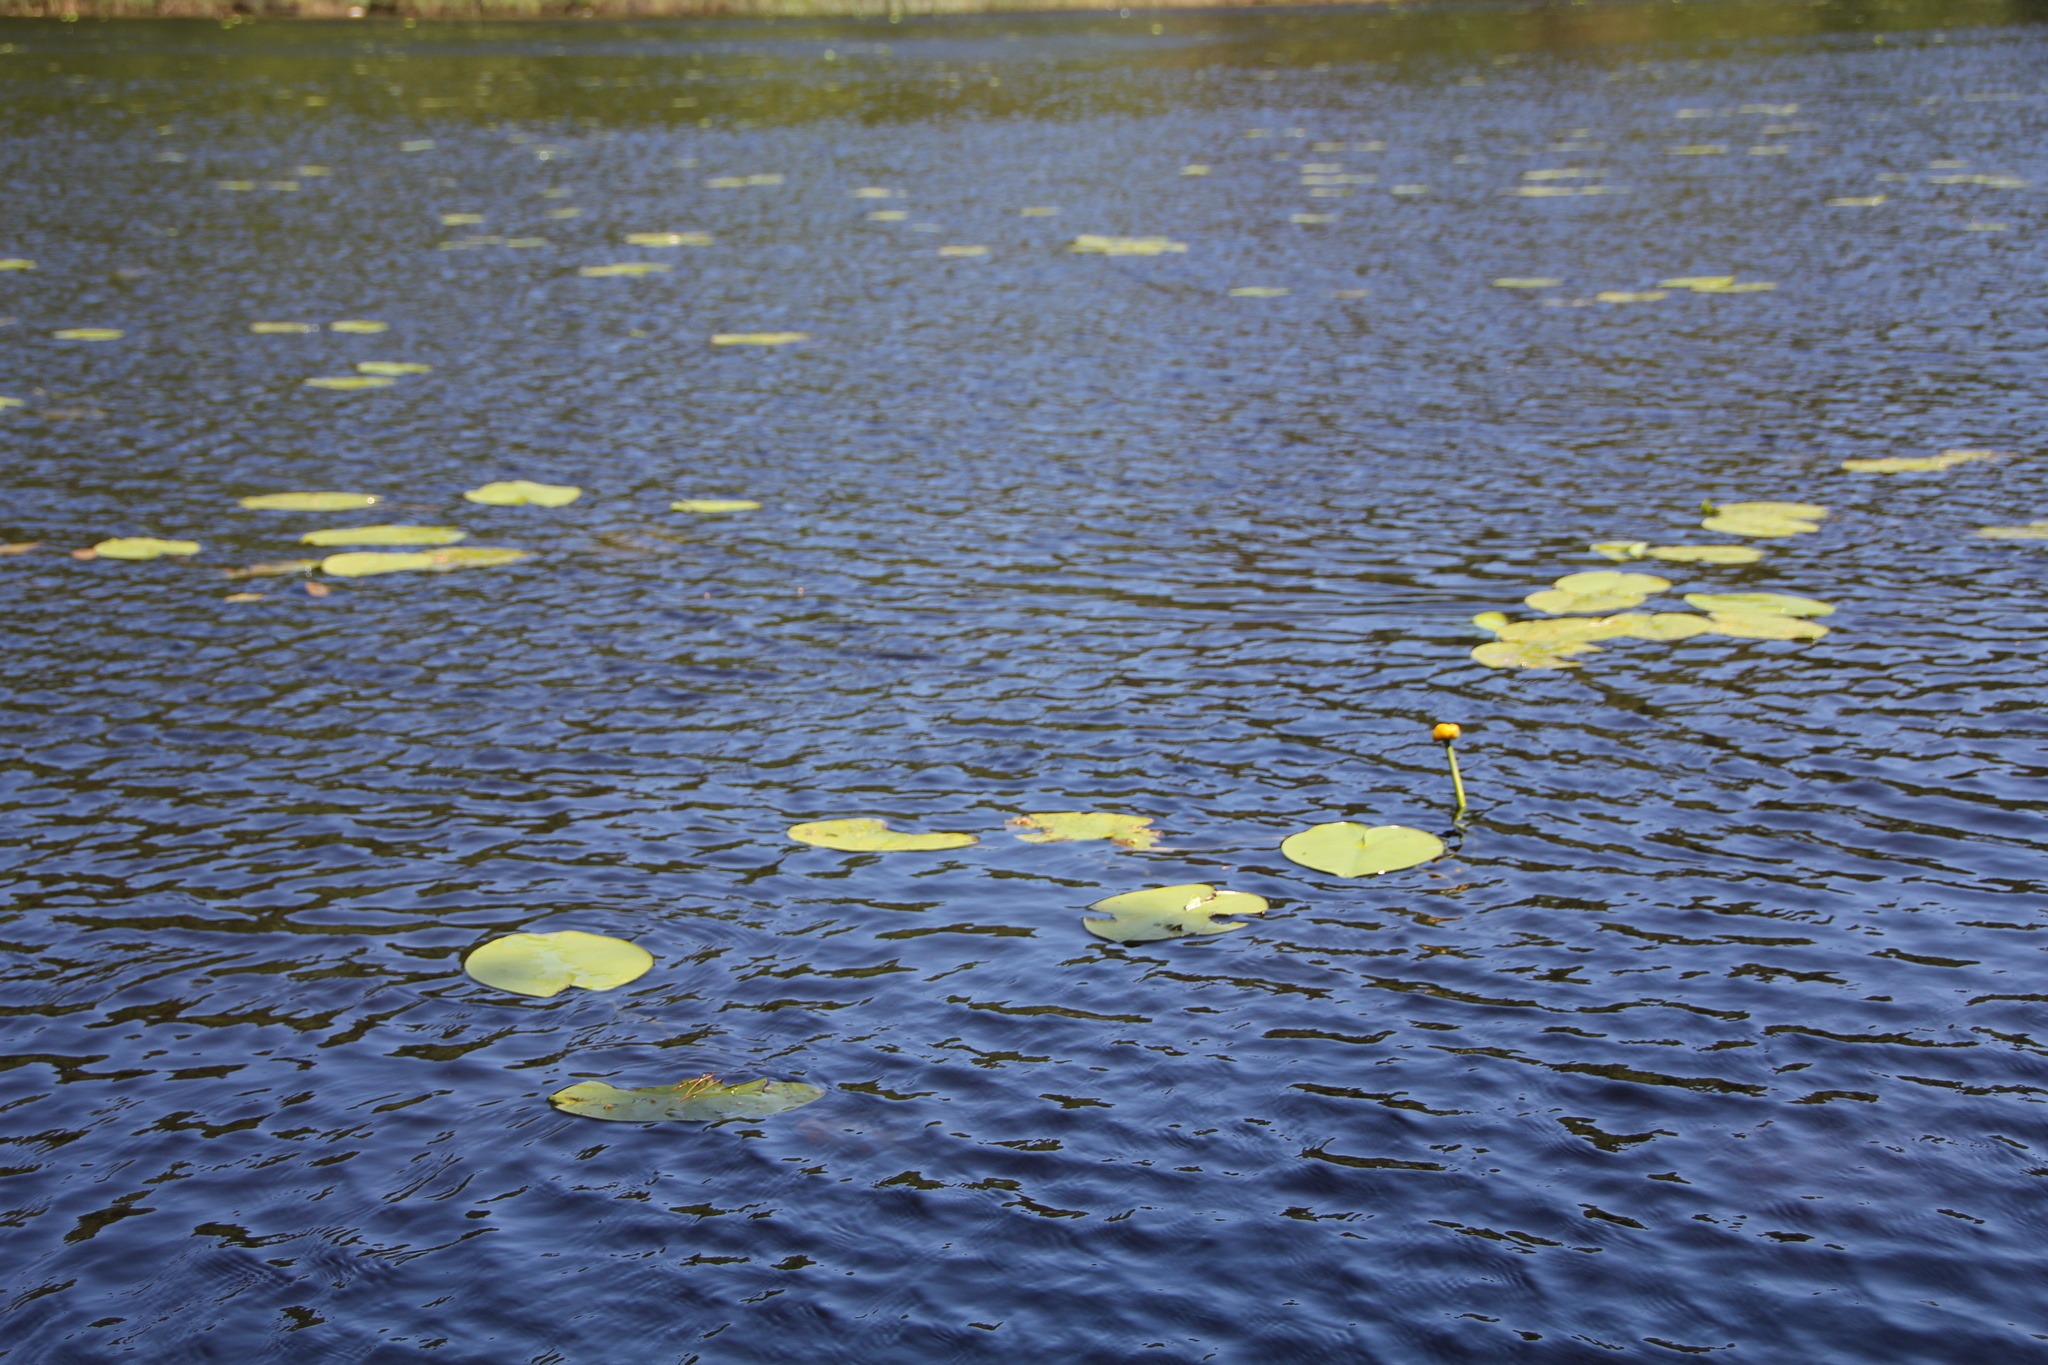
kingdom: Plantae
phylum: Tracheophyta
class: Magnoliopsida
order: Nymphaeales
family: Nymphaeaceae
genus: Nuphar
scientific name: Nuphar lutea
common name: Yellow water-lily
